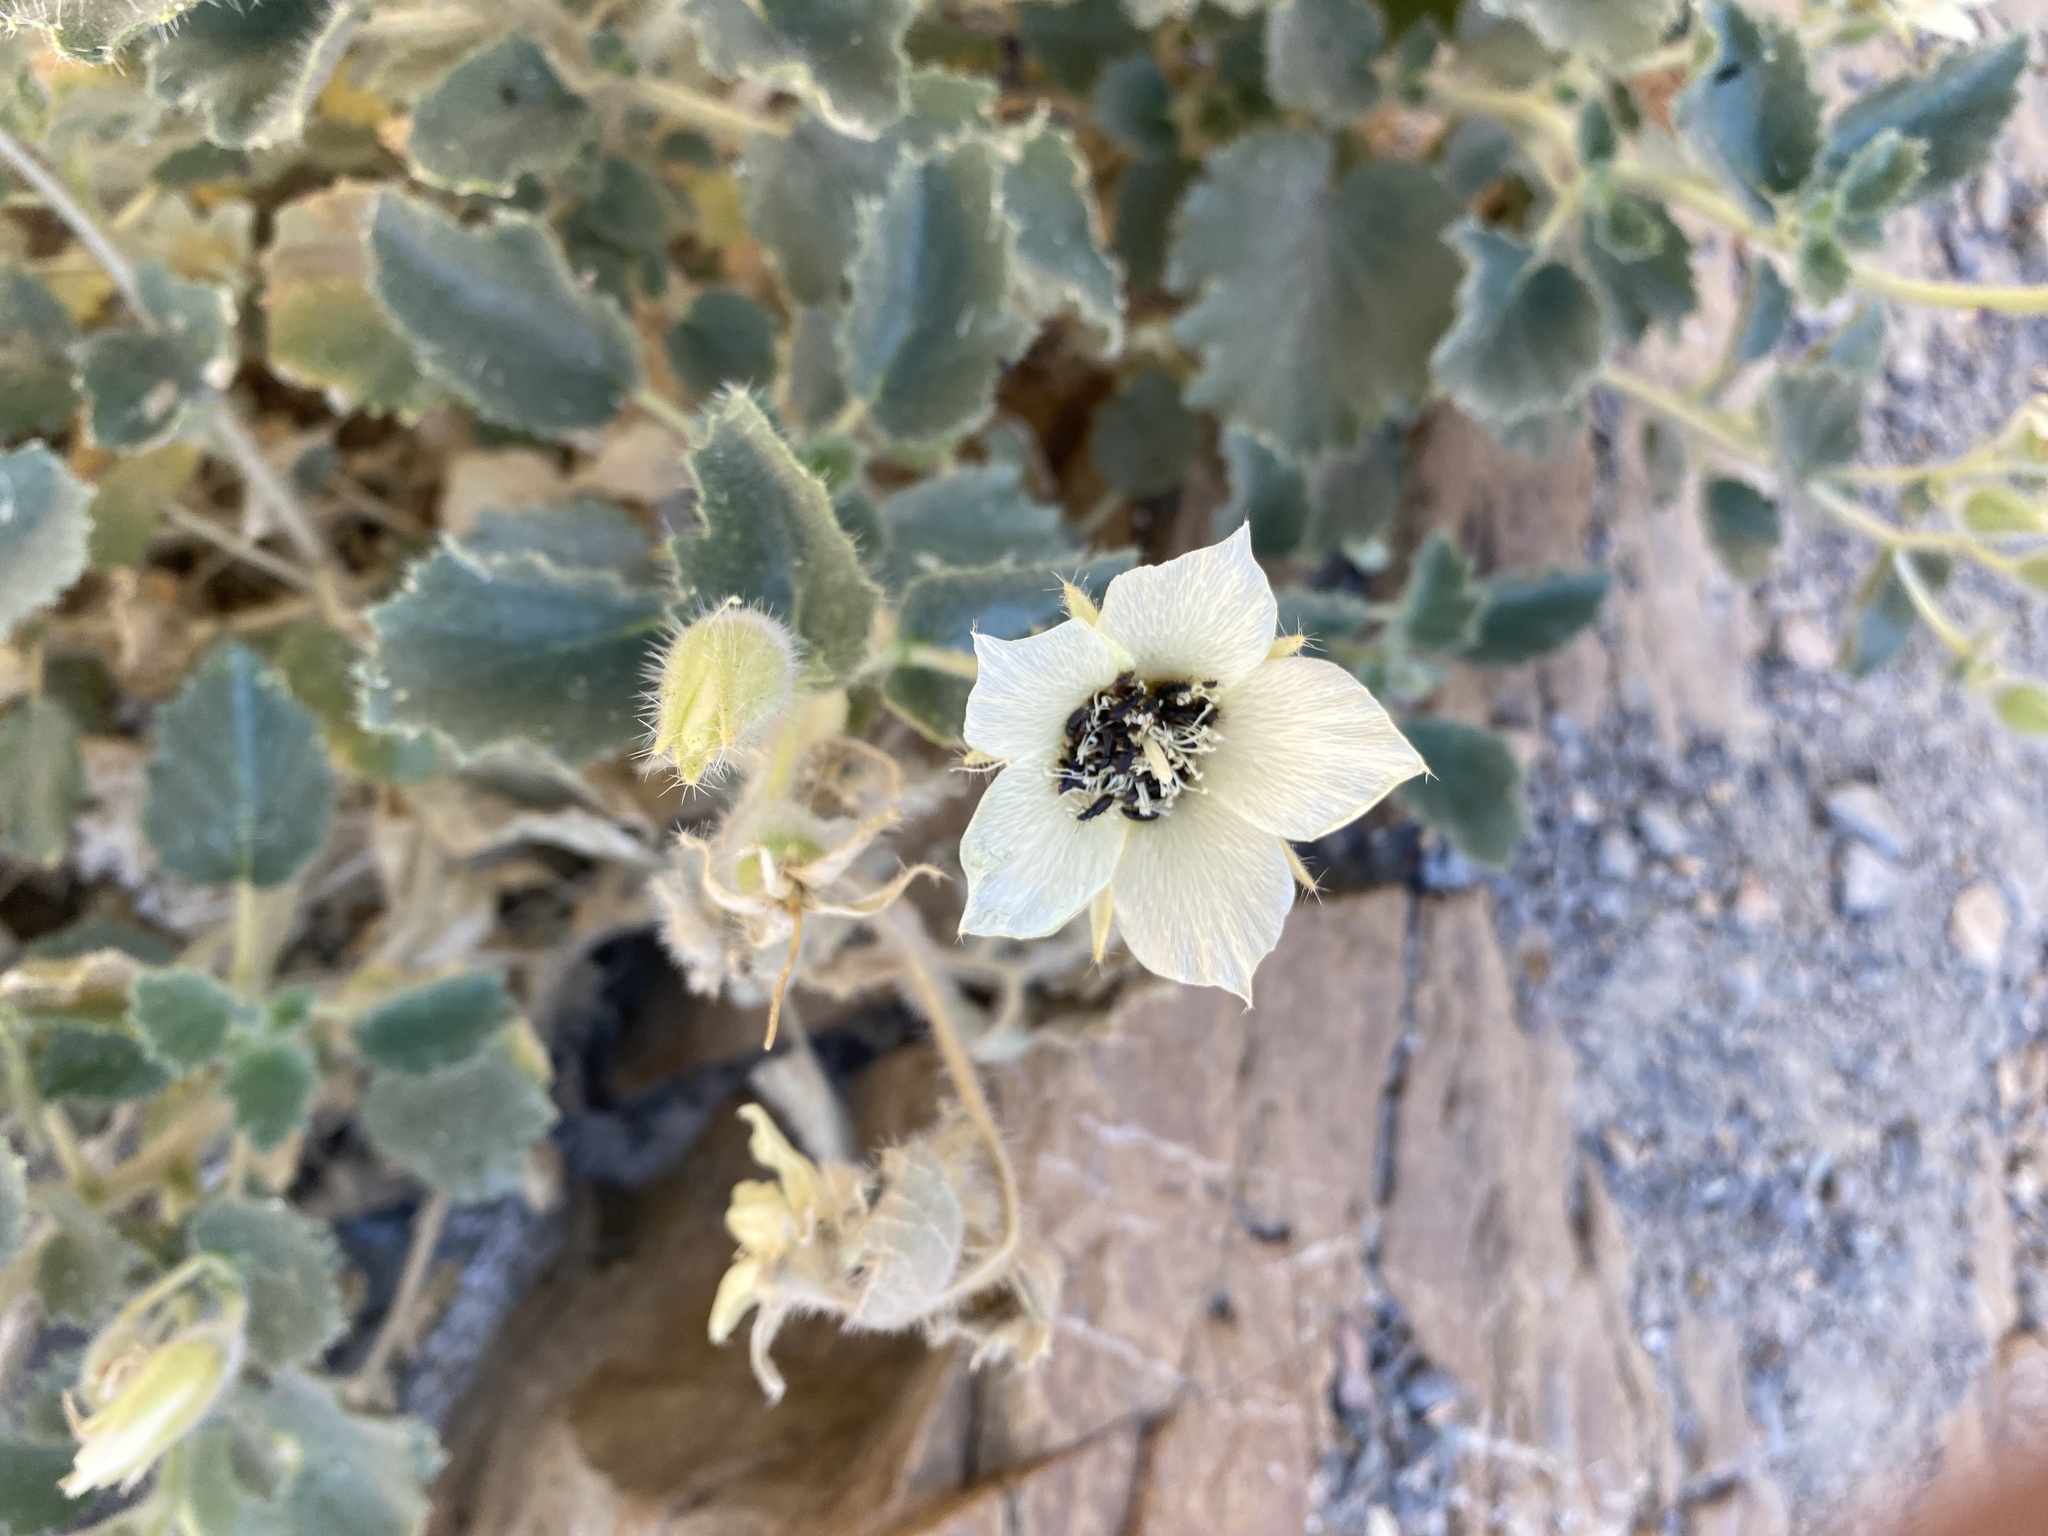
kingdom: Plantae
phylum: Tracheophyta
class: Magnoliopsida
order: Cornales
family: Loasaceae
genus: Eucnide
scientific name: Eucnide urens
